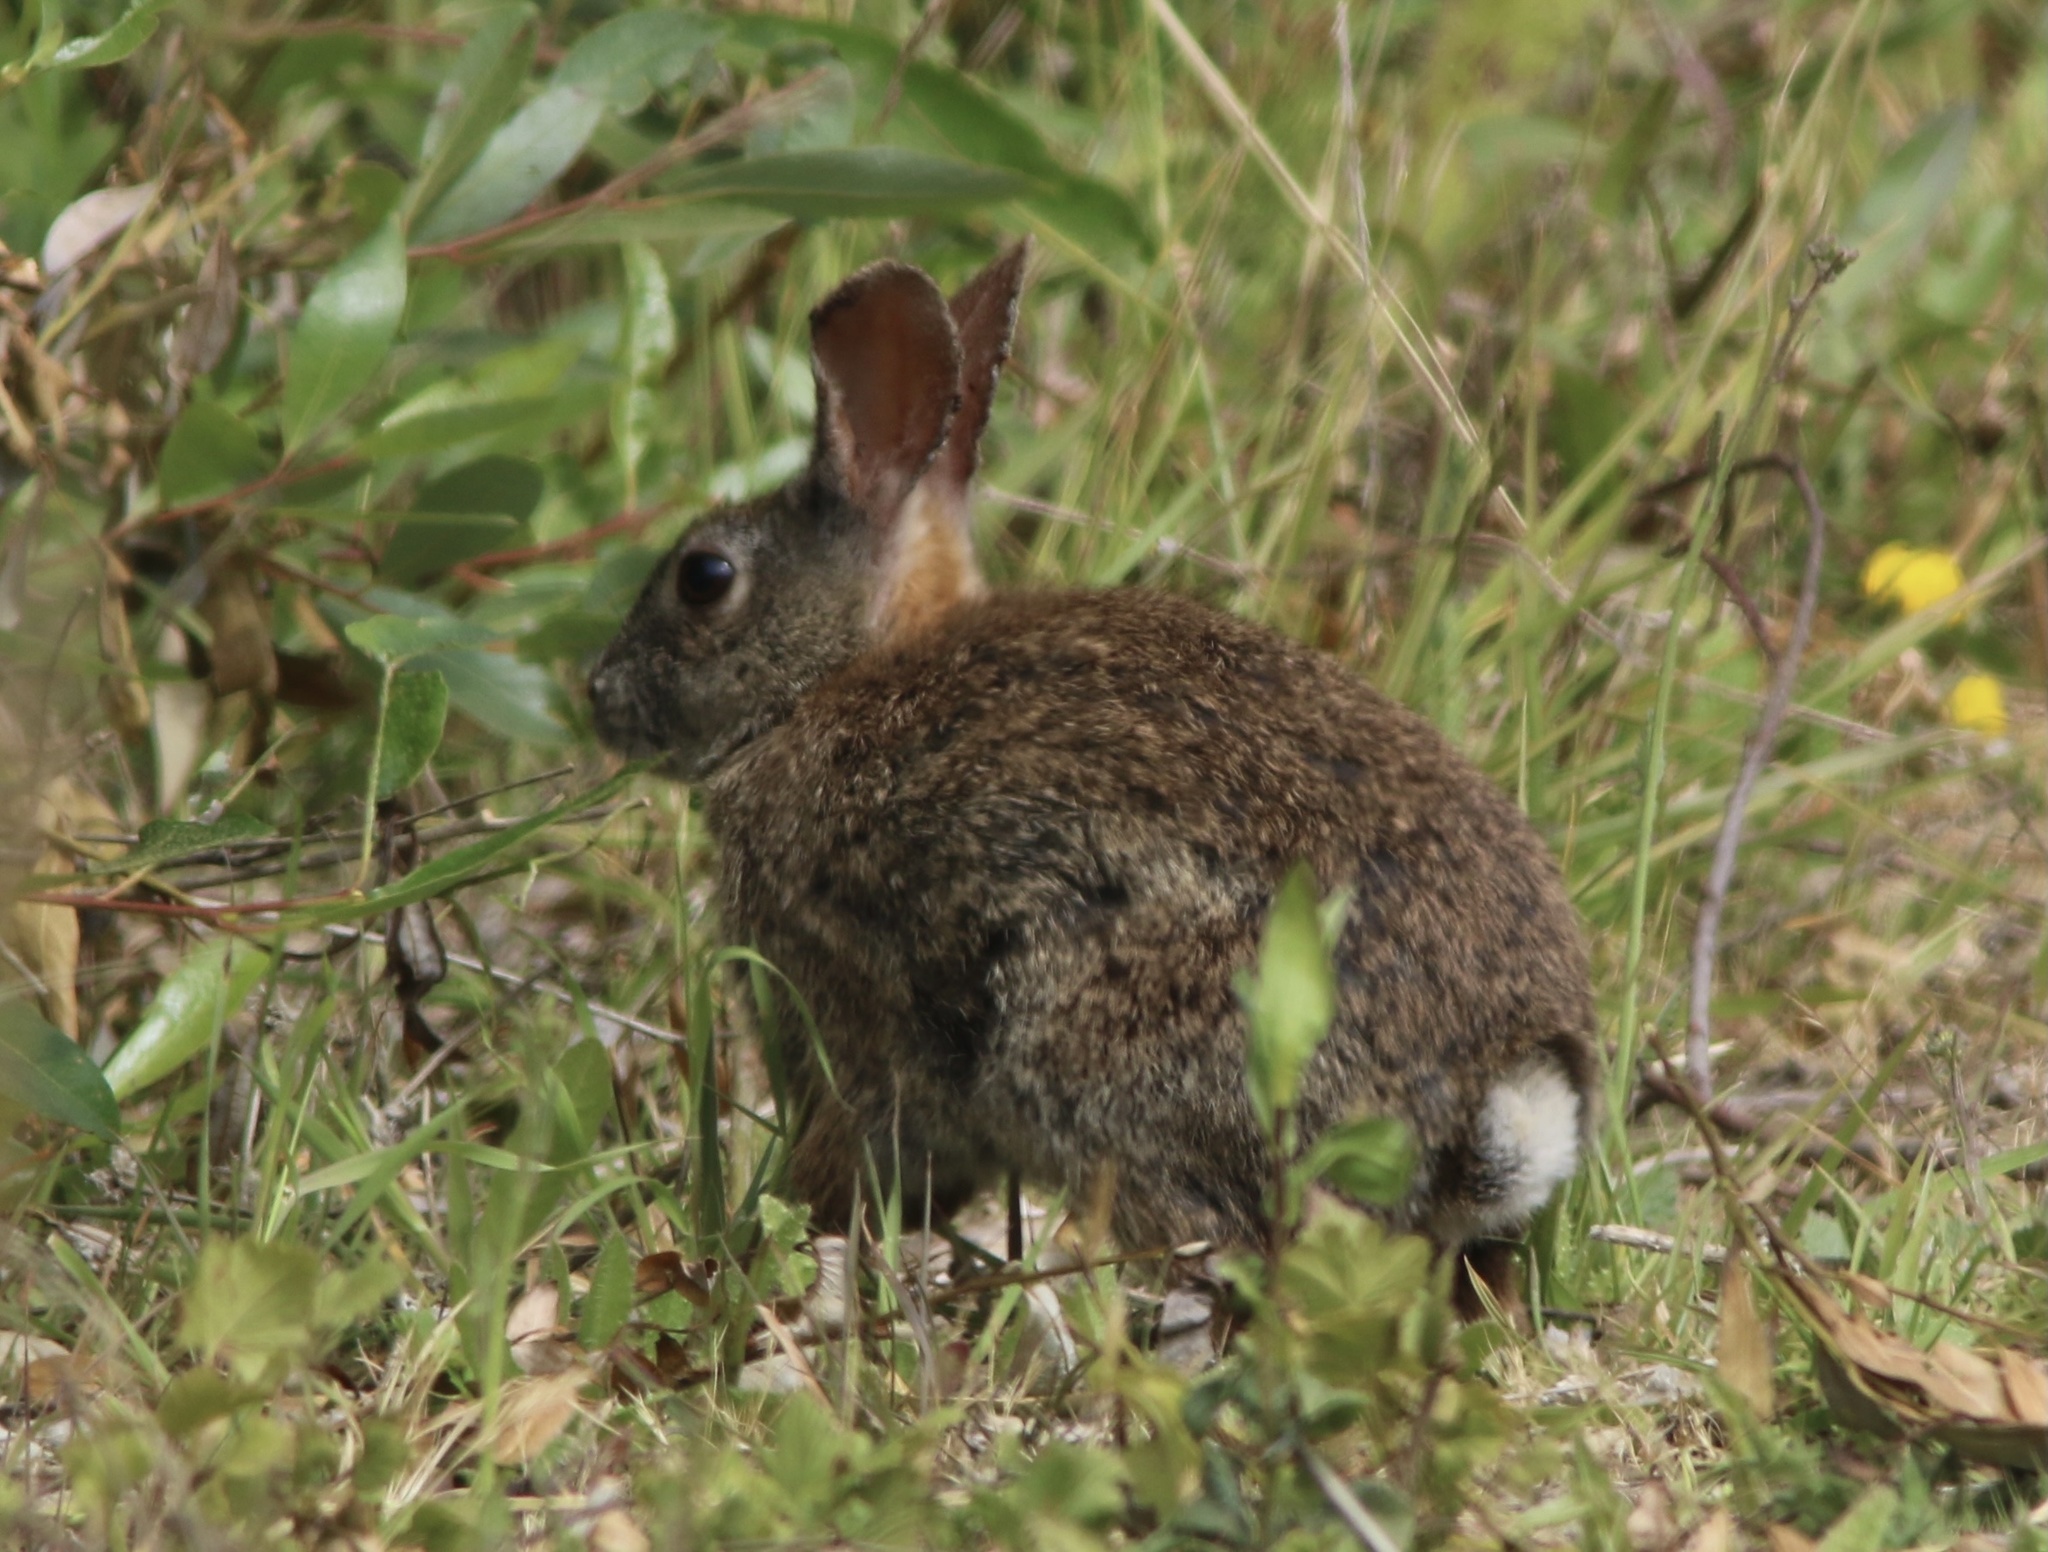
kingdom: Animalia
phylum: Chordata
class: Mammalia
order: Lagomorpha
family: Leporidae
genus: Sylvilagus
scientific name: Sylvilagus bachmani
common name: Brush rabbit
